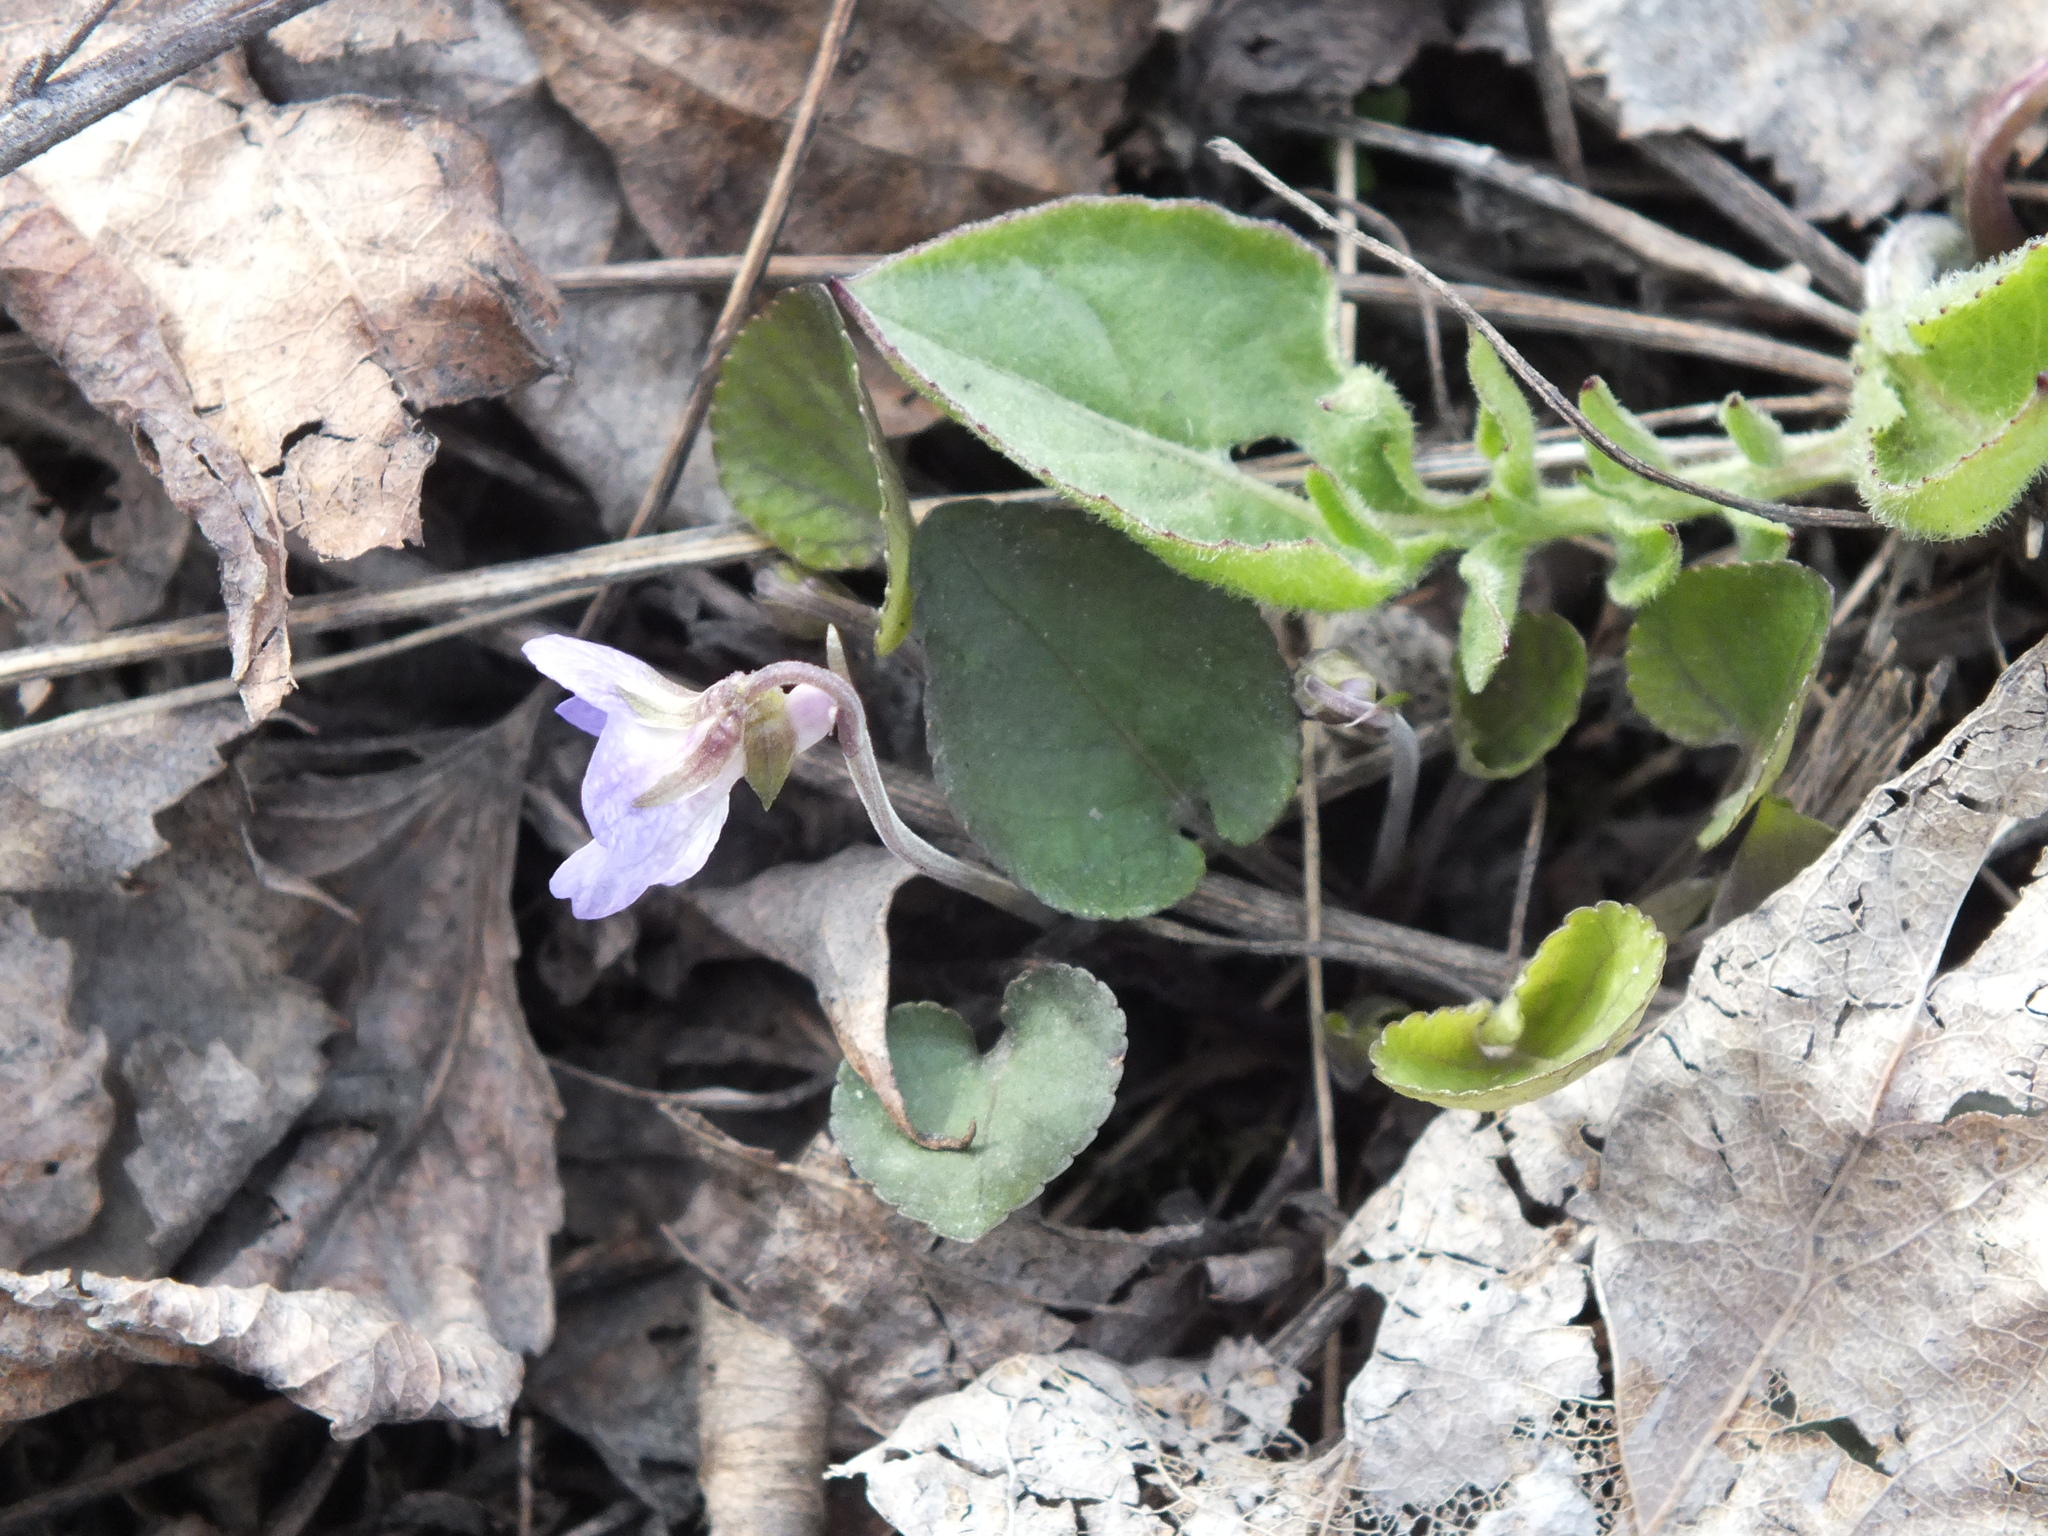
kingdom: Plantae
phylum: Tracheophyta
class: Magnoliopsida
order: Malpighiales
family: Violaceae
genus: Viola
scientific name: Viola rupestris
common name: Teesdale violet
